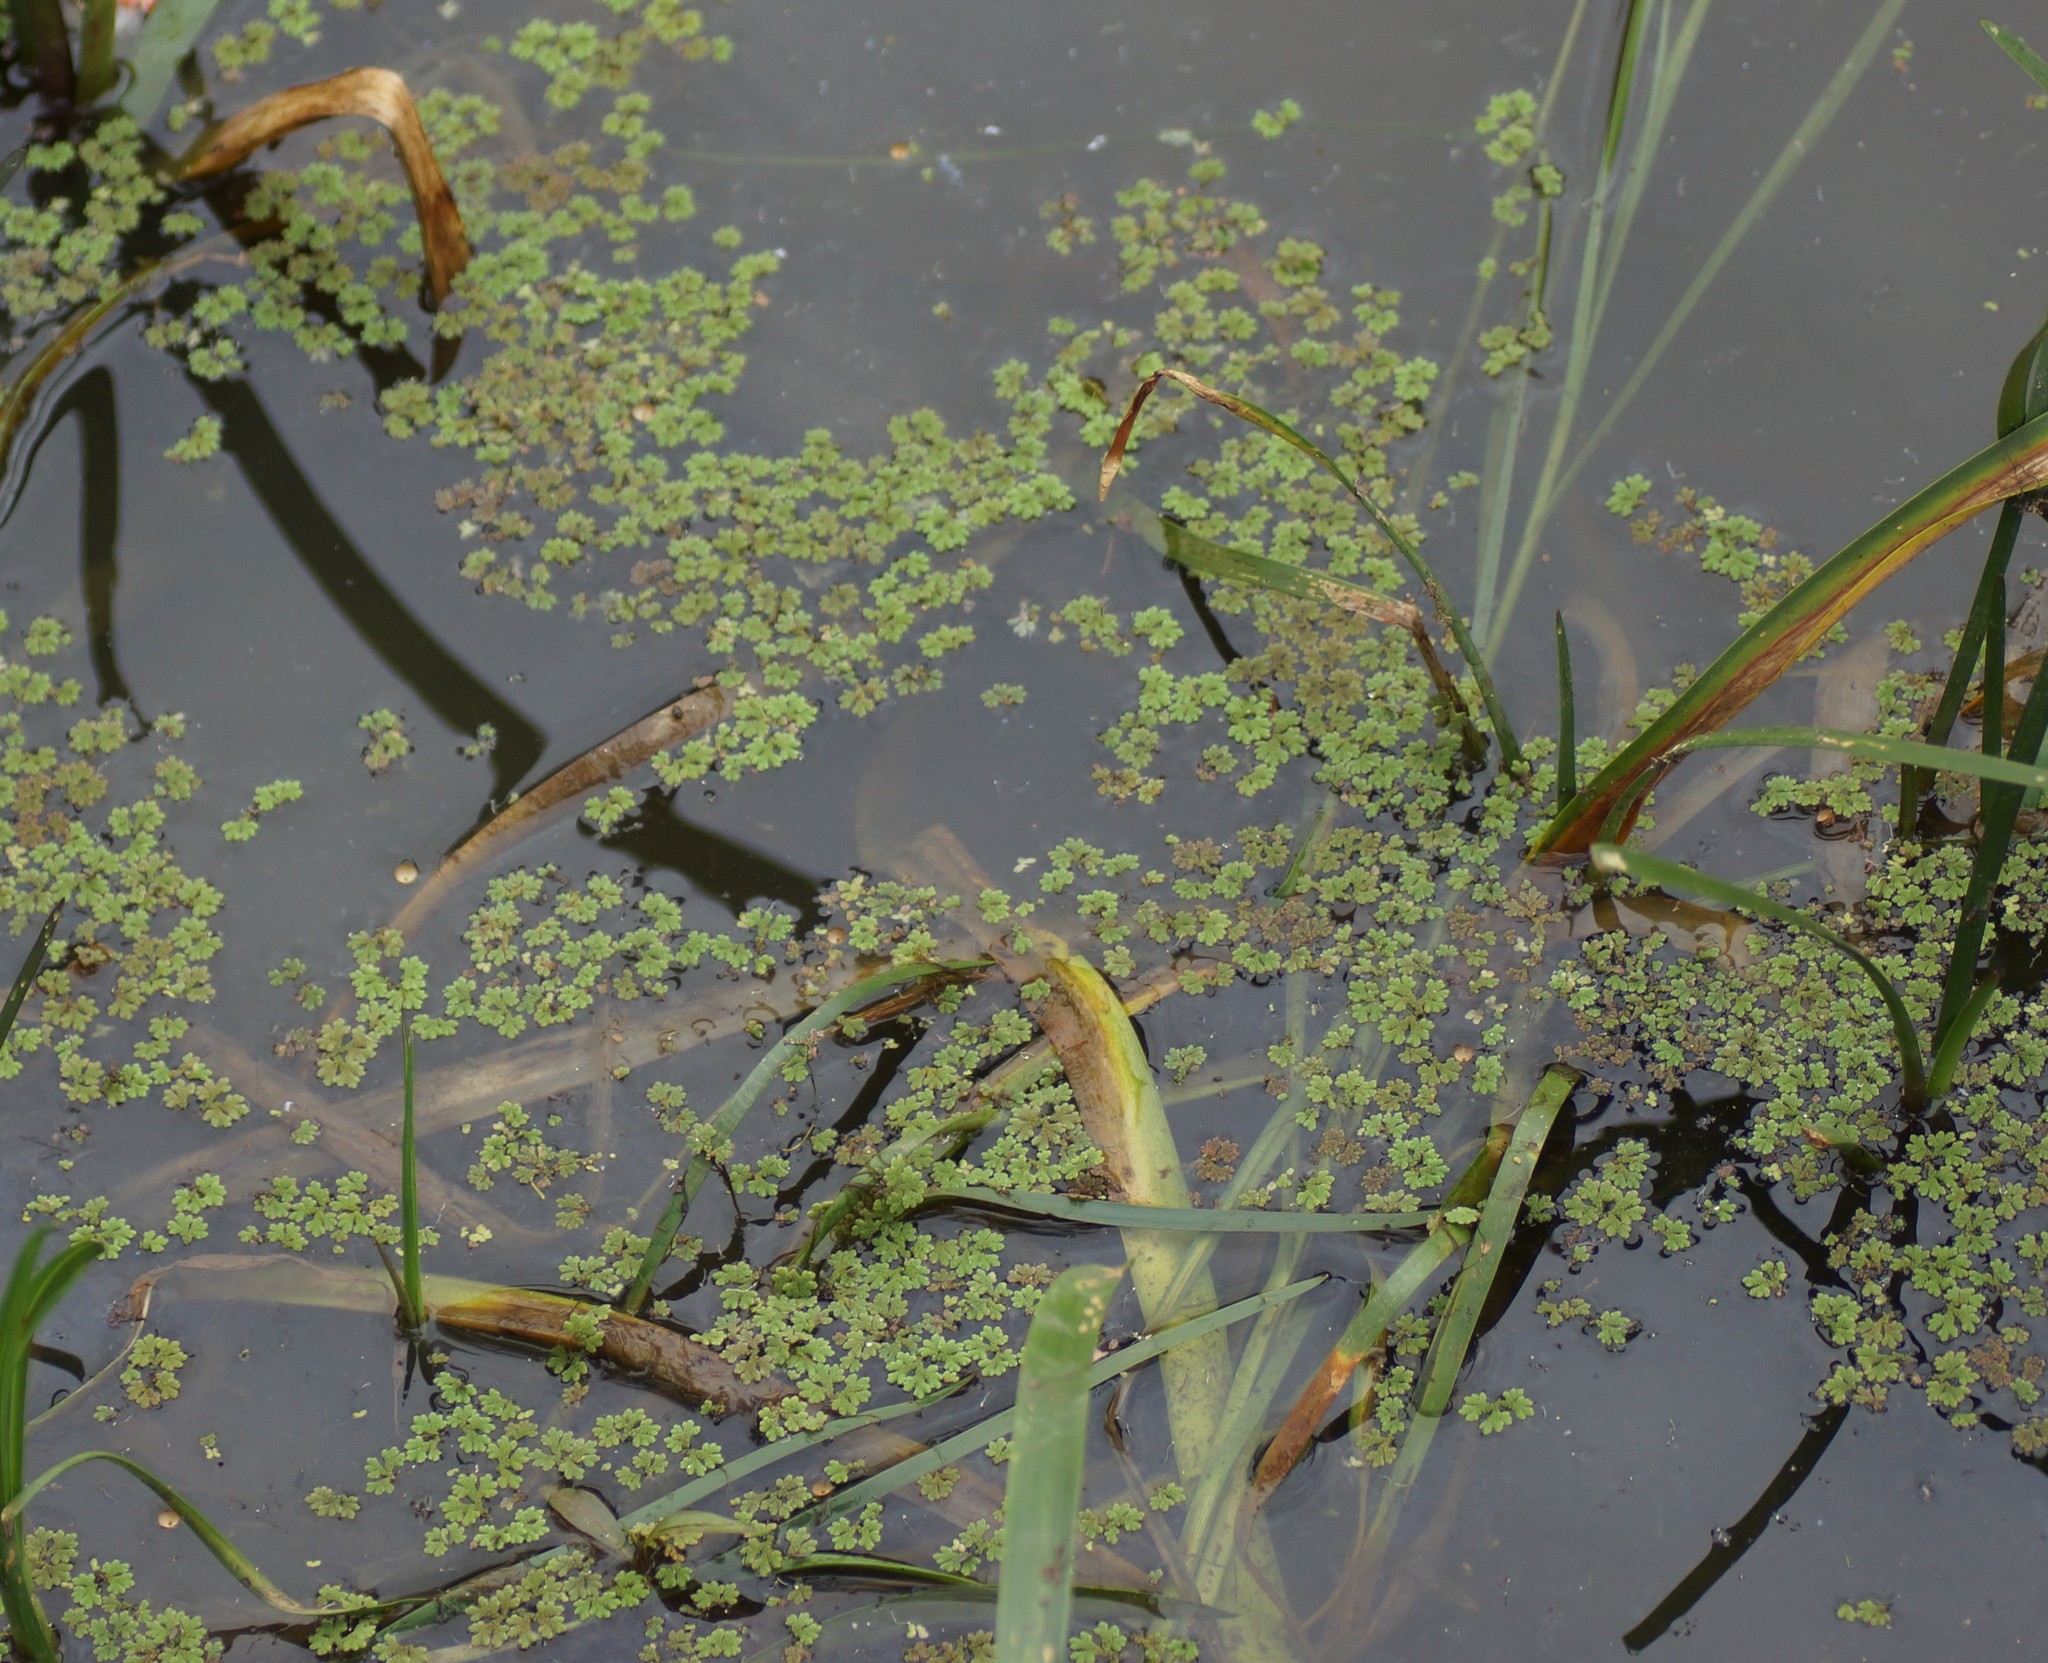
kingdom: Plantae
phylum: Tracheophyta
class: Polypodiopsida
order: Salviniales
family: Salviniaceae
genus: Azolla
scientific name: Azolla rubra
